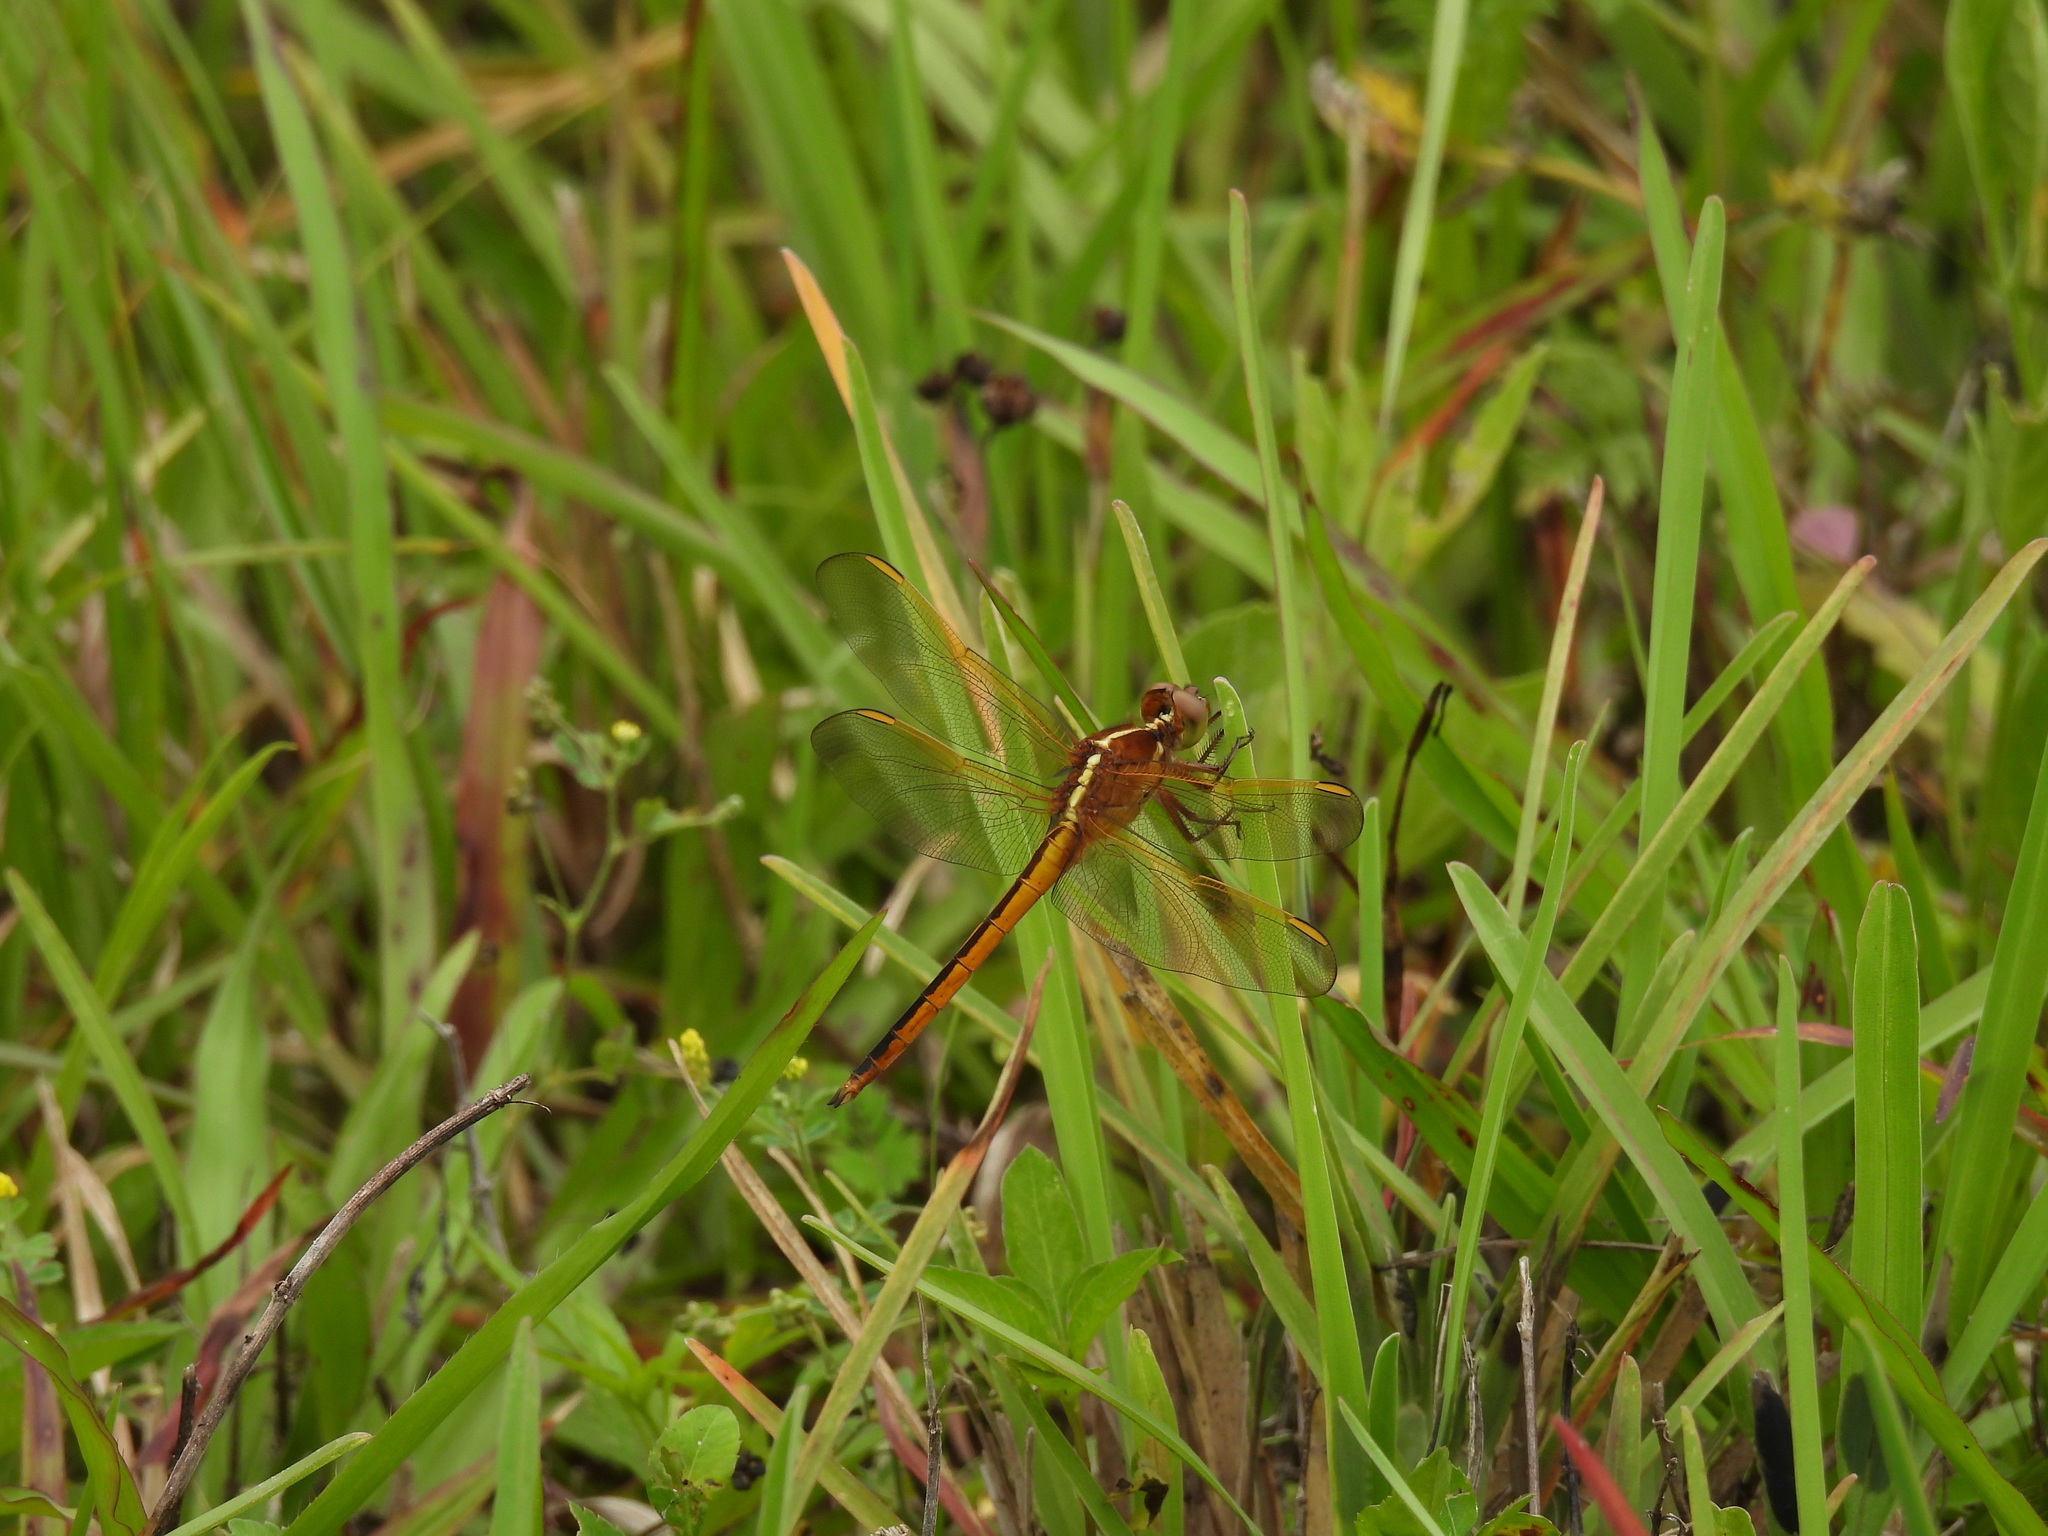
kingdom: Animalia
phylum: Arthropoda
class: Insecta
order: Odonata
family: Libellulidae
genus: Libellula
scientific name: Libellula needhami
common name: Needham's skimmer
